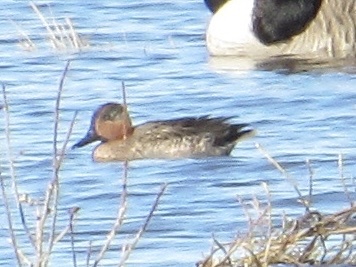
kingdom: Animalia
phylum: Chordata
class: Aves
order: Anseriformes
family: Anatidae
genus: Anas
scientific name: Anas crecca
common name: Eurasian teal
